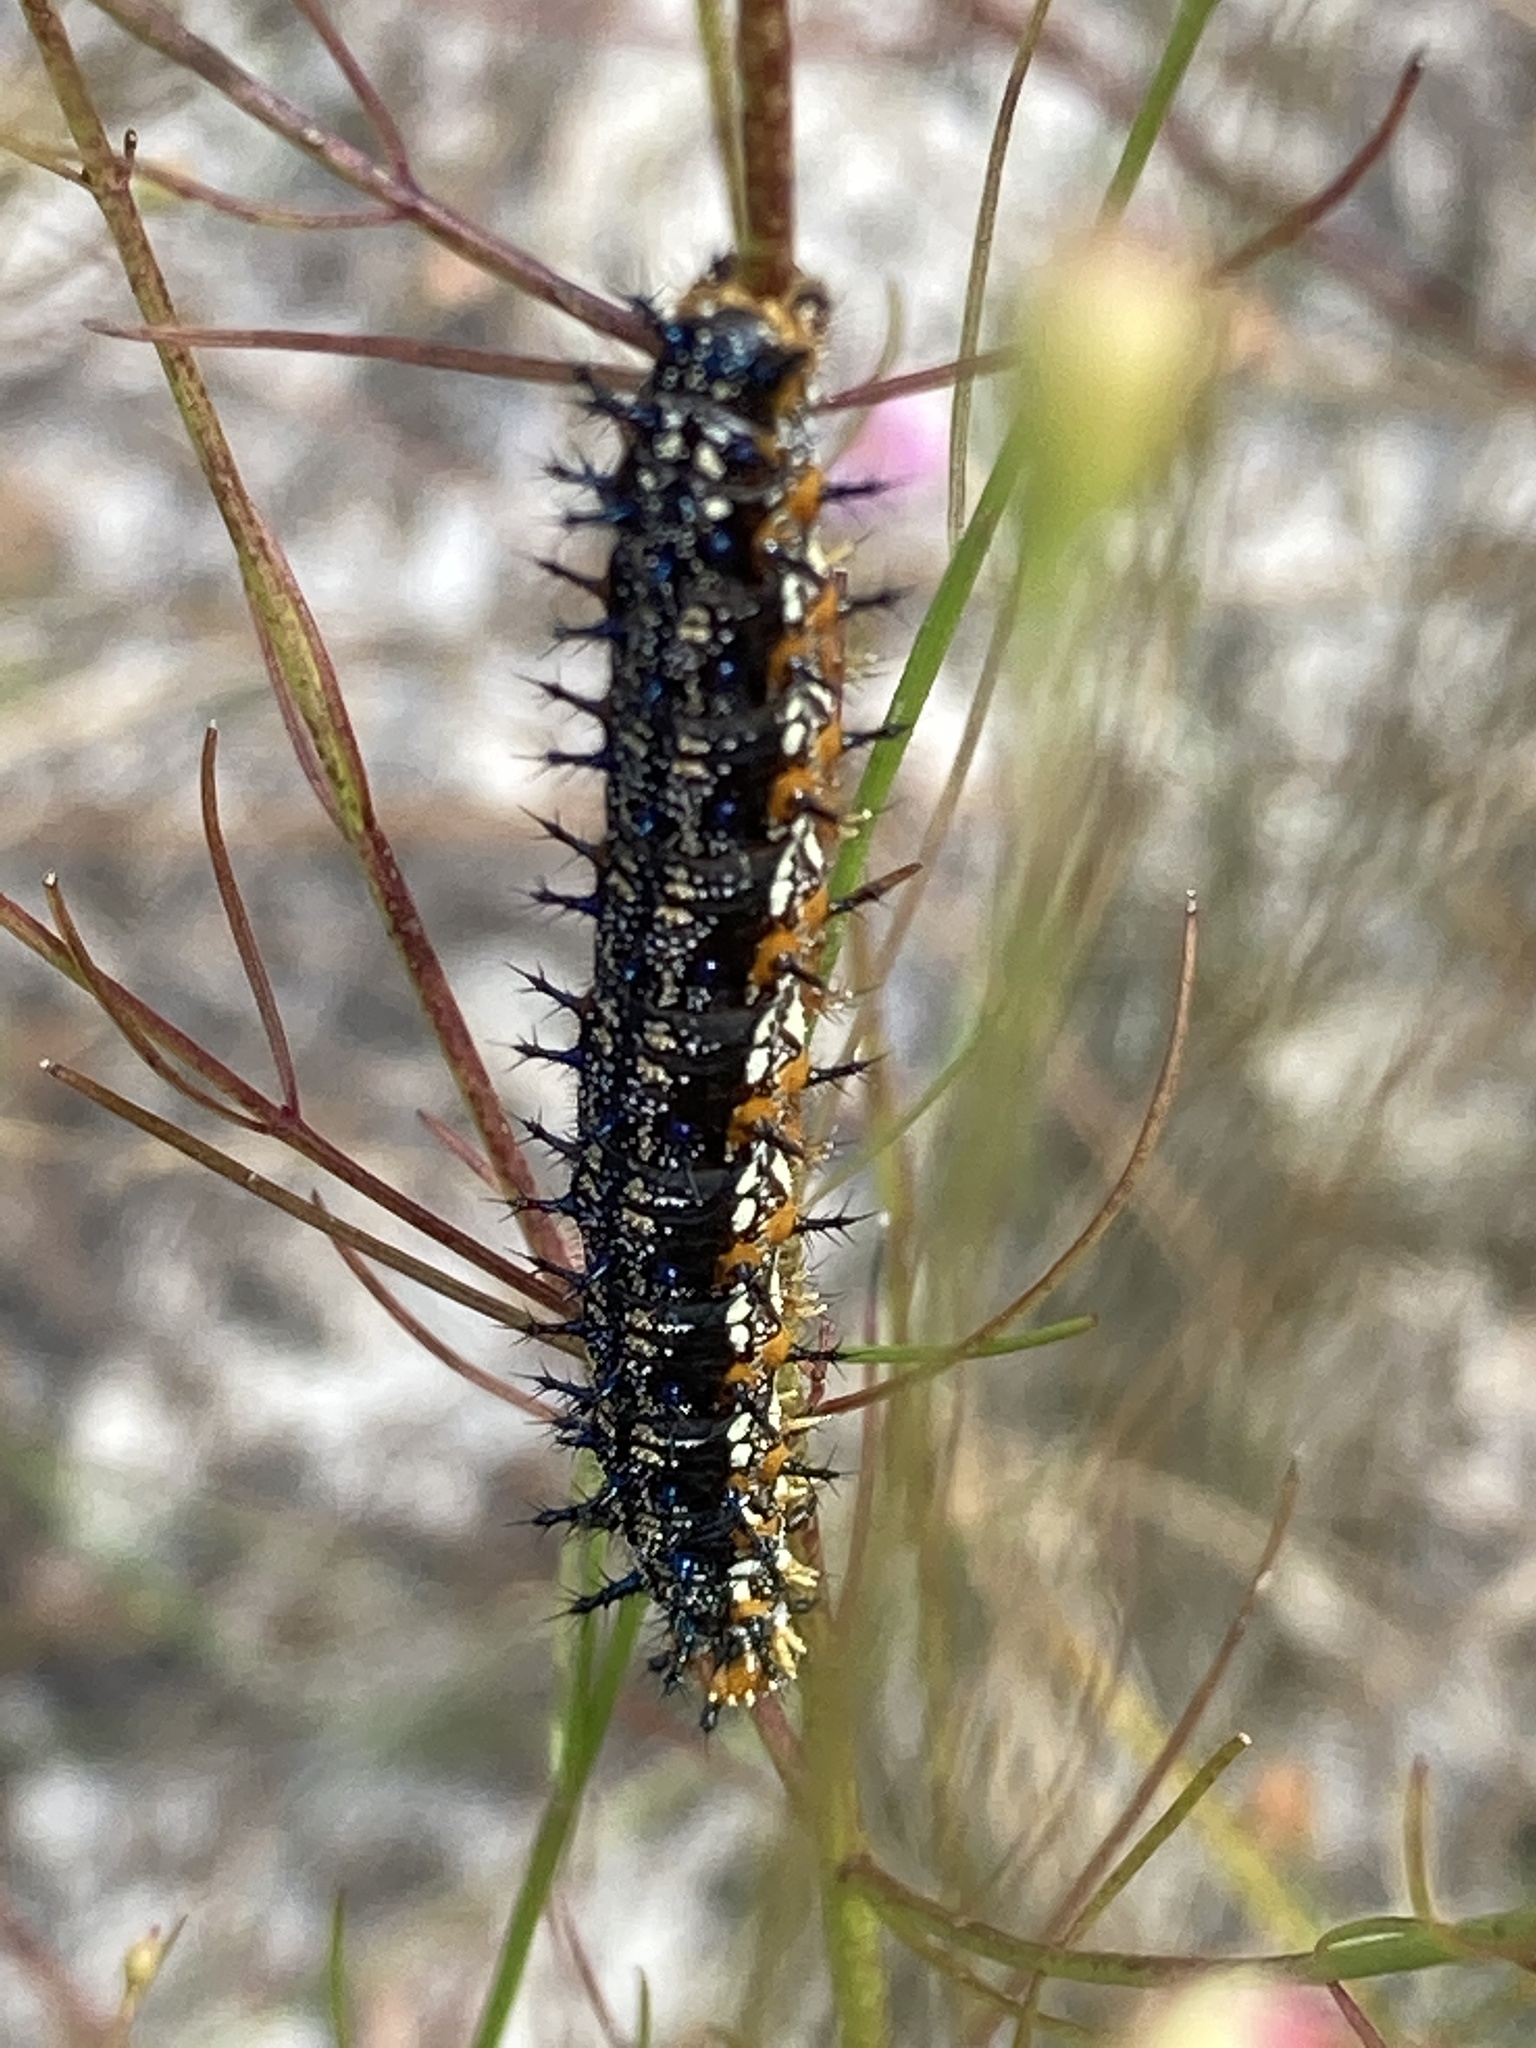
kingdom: Animalia
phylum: Arthropoda
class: Insecta
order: Lepidoptera
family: Nymphalidae
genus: Junonia
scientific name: Junonia coenia
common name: Common buckeye
